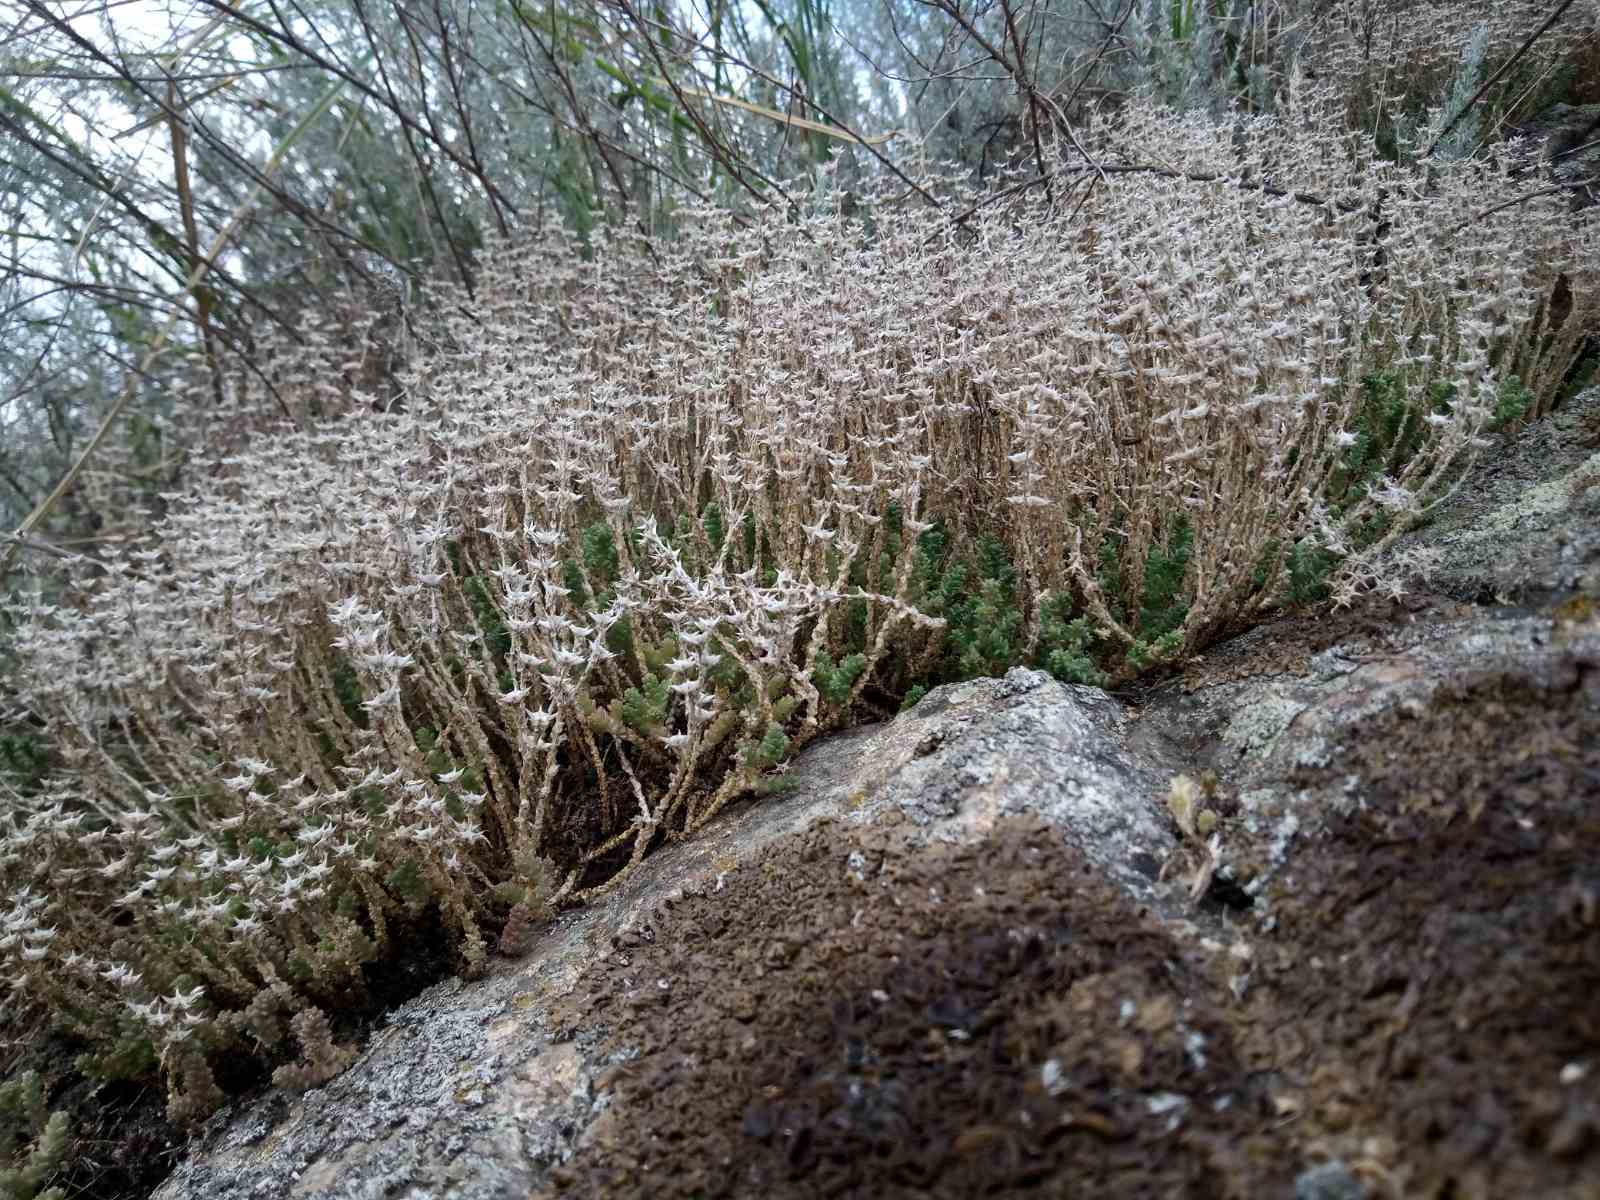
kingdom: Plantae
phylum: Tracheophyta
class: Magnoliopsida
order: Saxifragales
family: Crassulaceae
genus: Sedum
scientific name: Sedum acre
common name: Biting stonecrop
